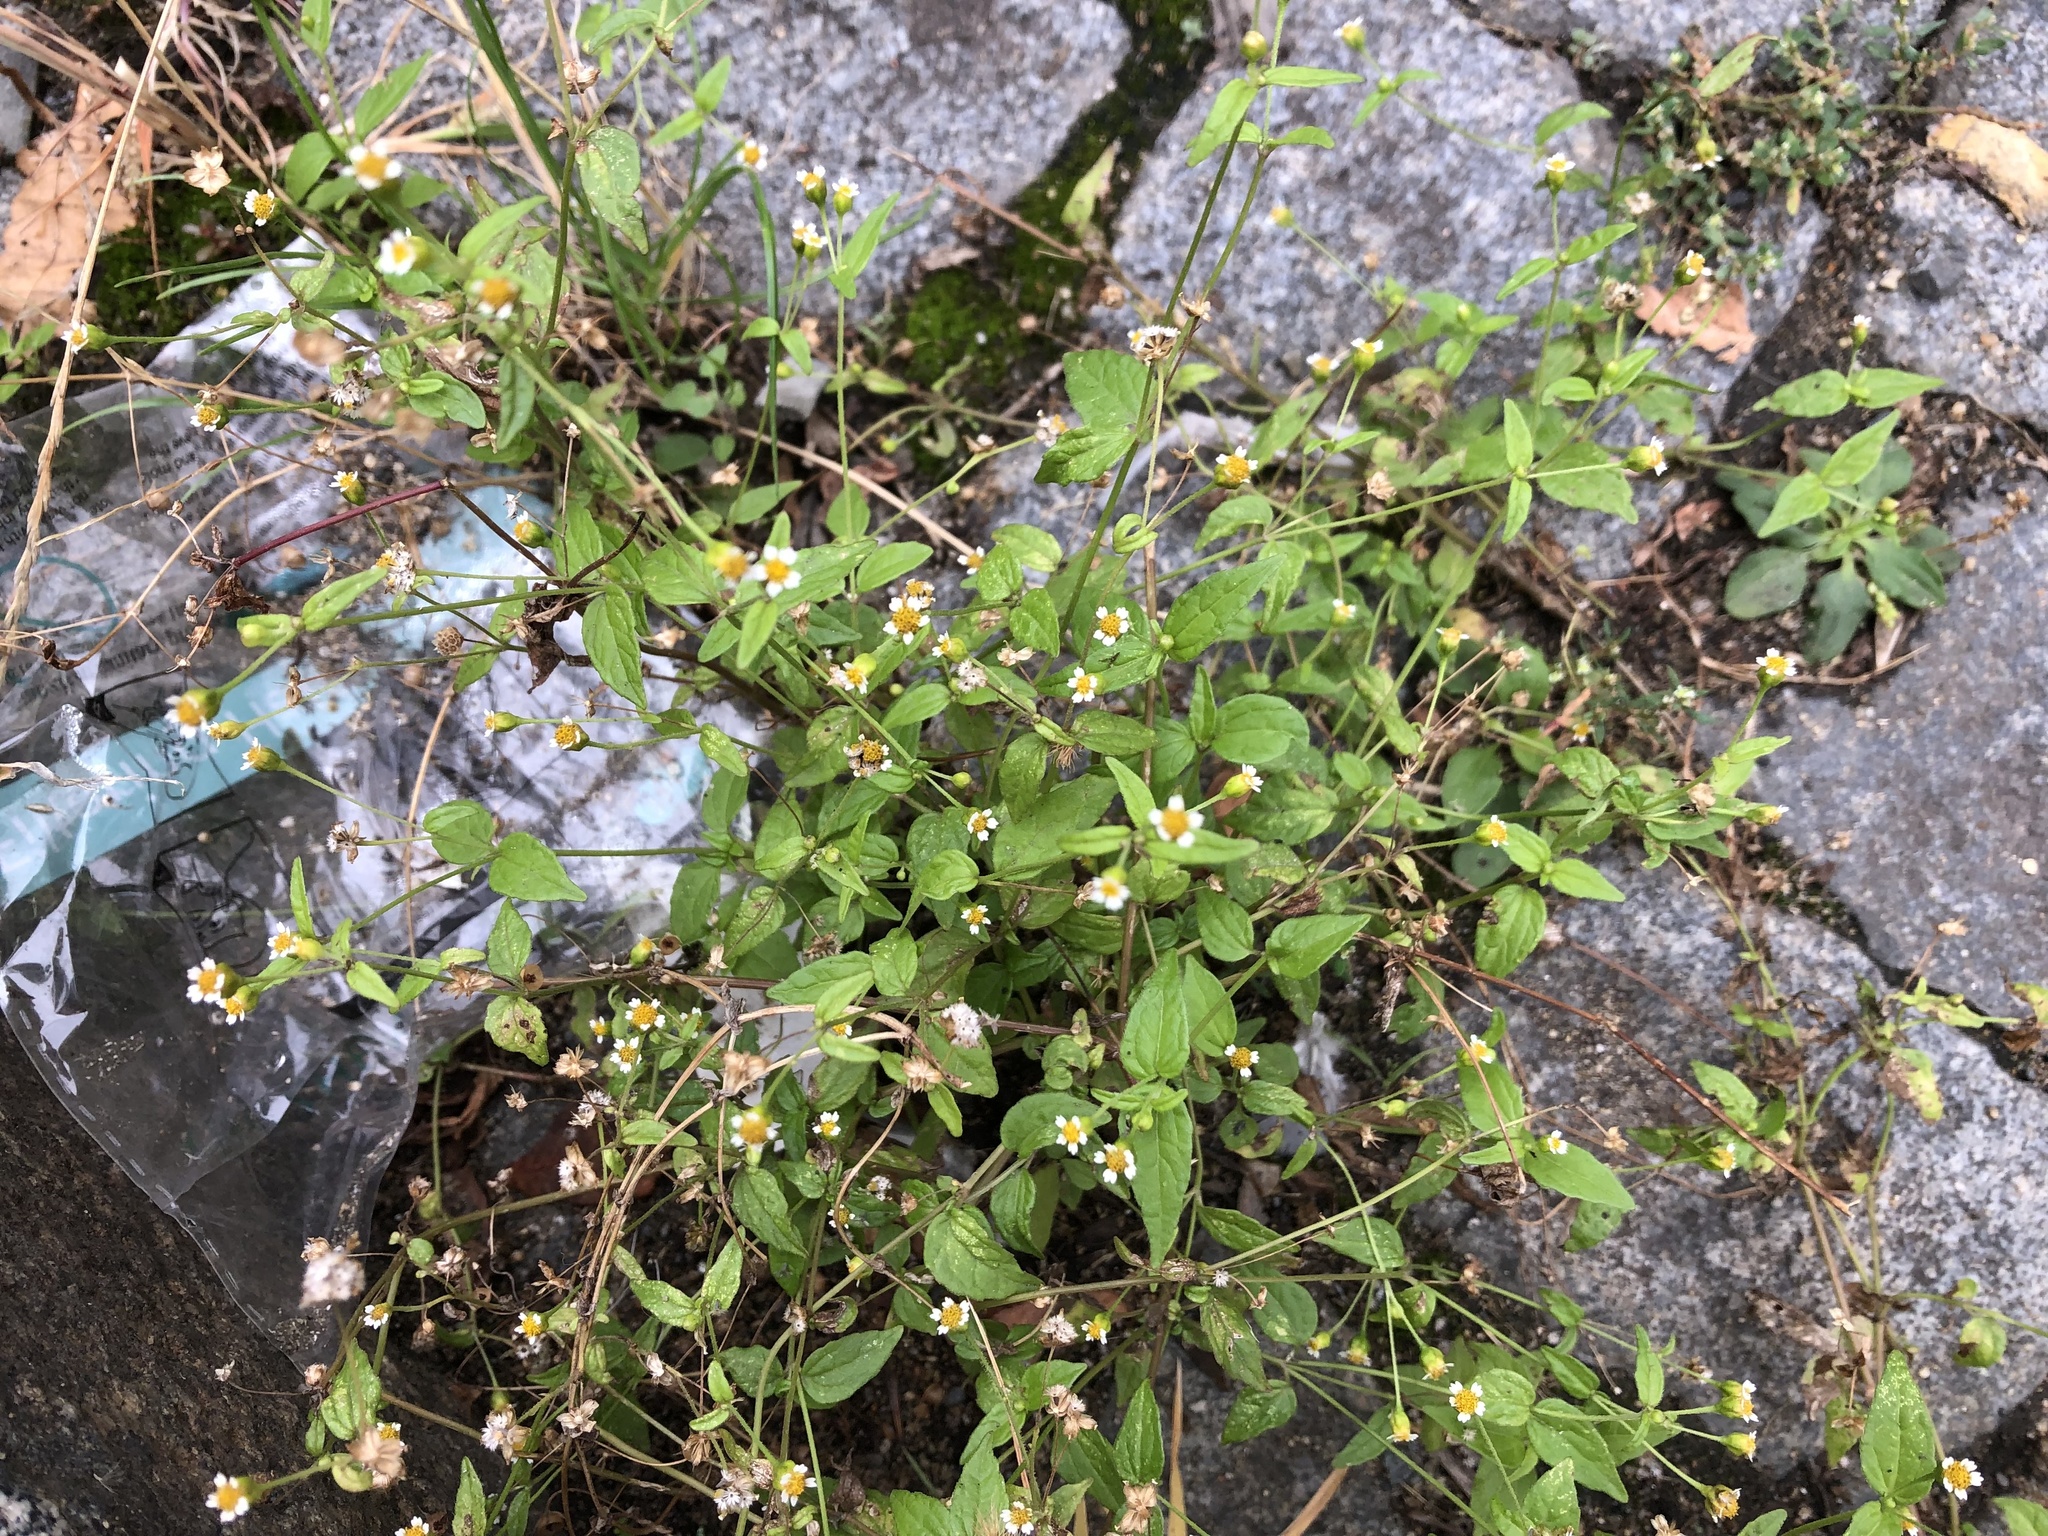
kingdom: Plantae
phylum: Tracheophyta
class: Magnoliopsida
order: Asterales
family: Asteraceae
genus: Galinsoga
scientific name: Galinsoga parviflora
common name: Gallant soldier
